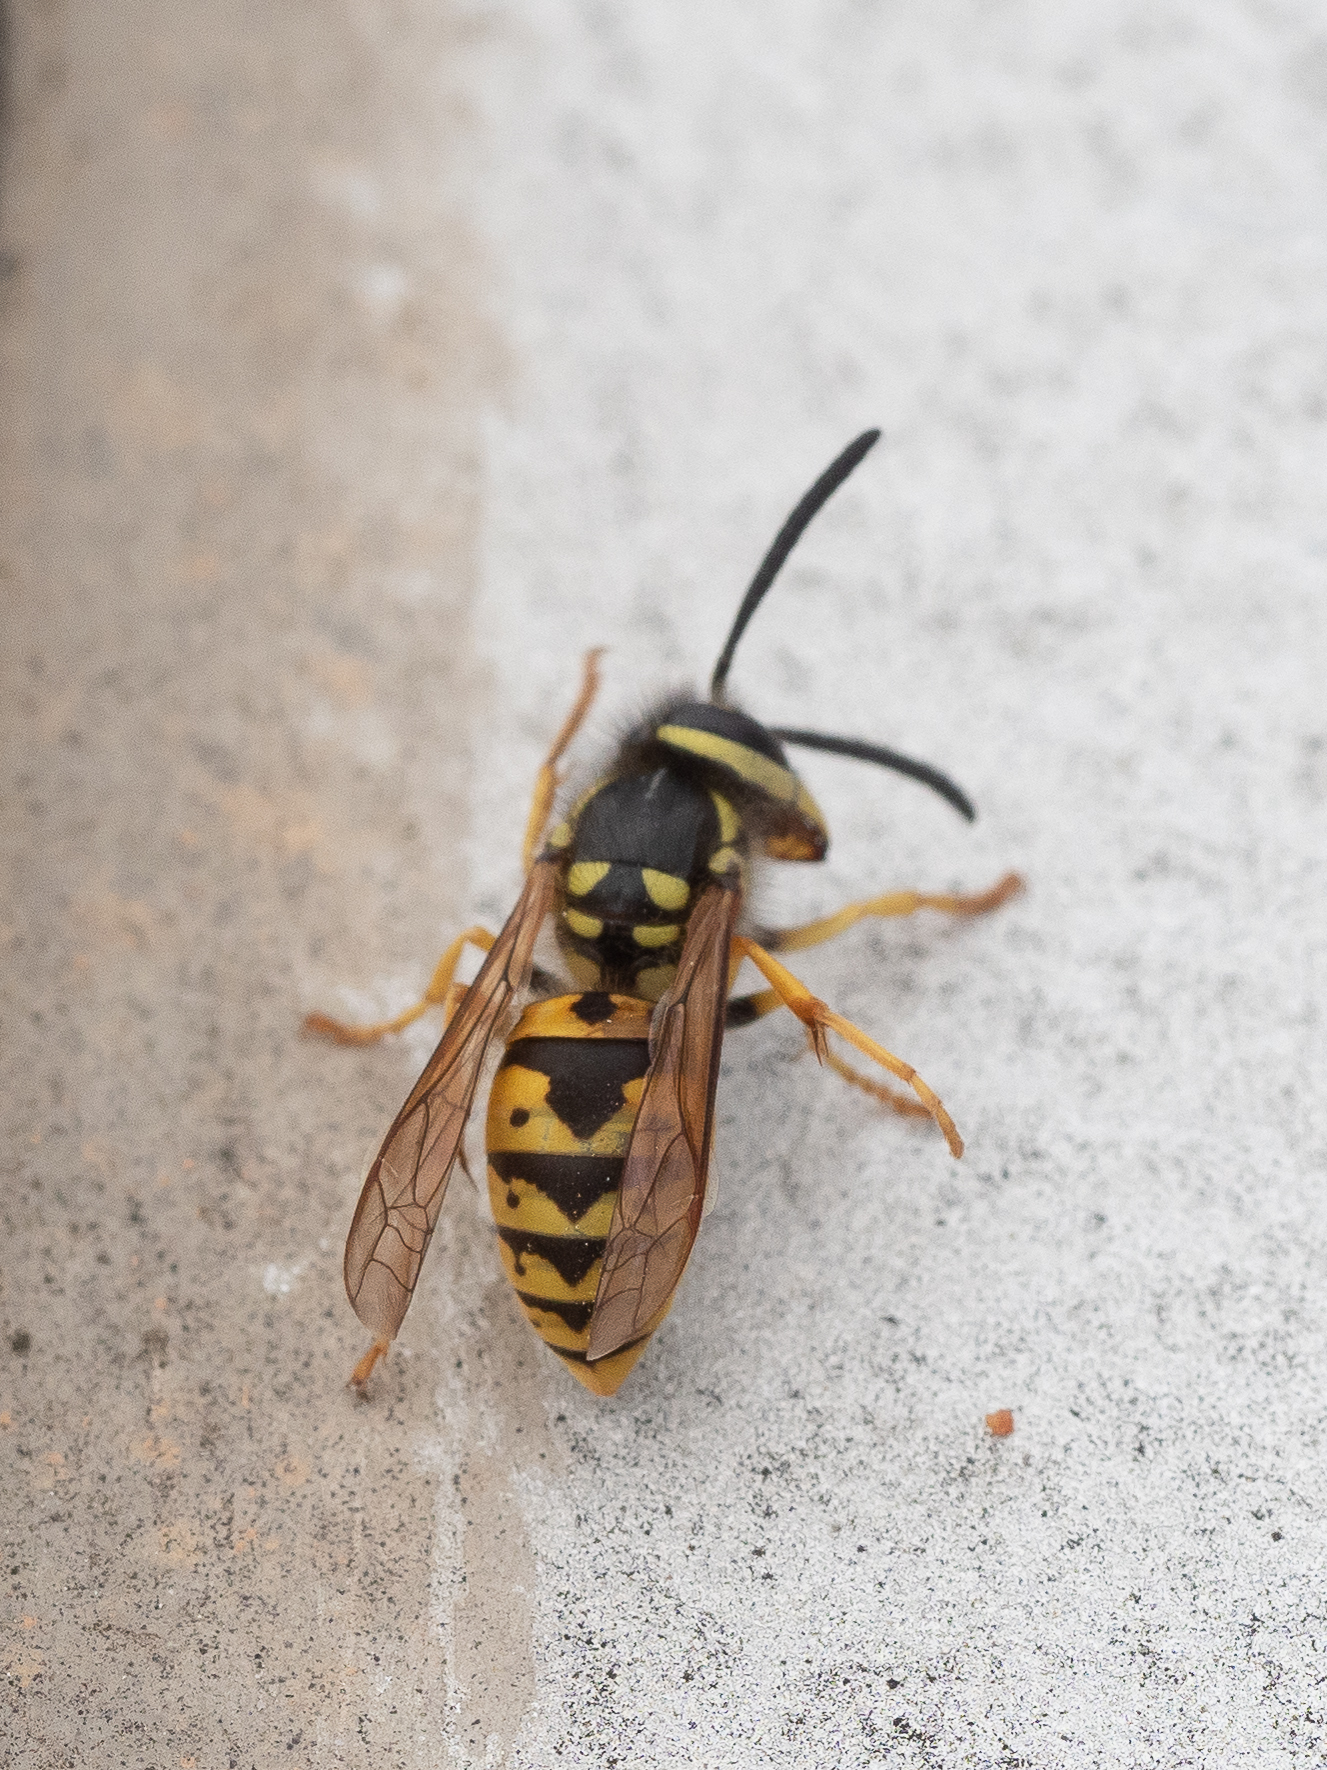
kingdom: Animalia
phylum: Arthropoda
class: Insecta
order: Hymenoptera
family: Vespidae
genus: Vespula
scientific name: Vespula germanica
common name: German wasp
